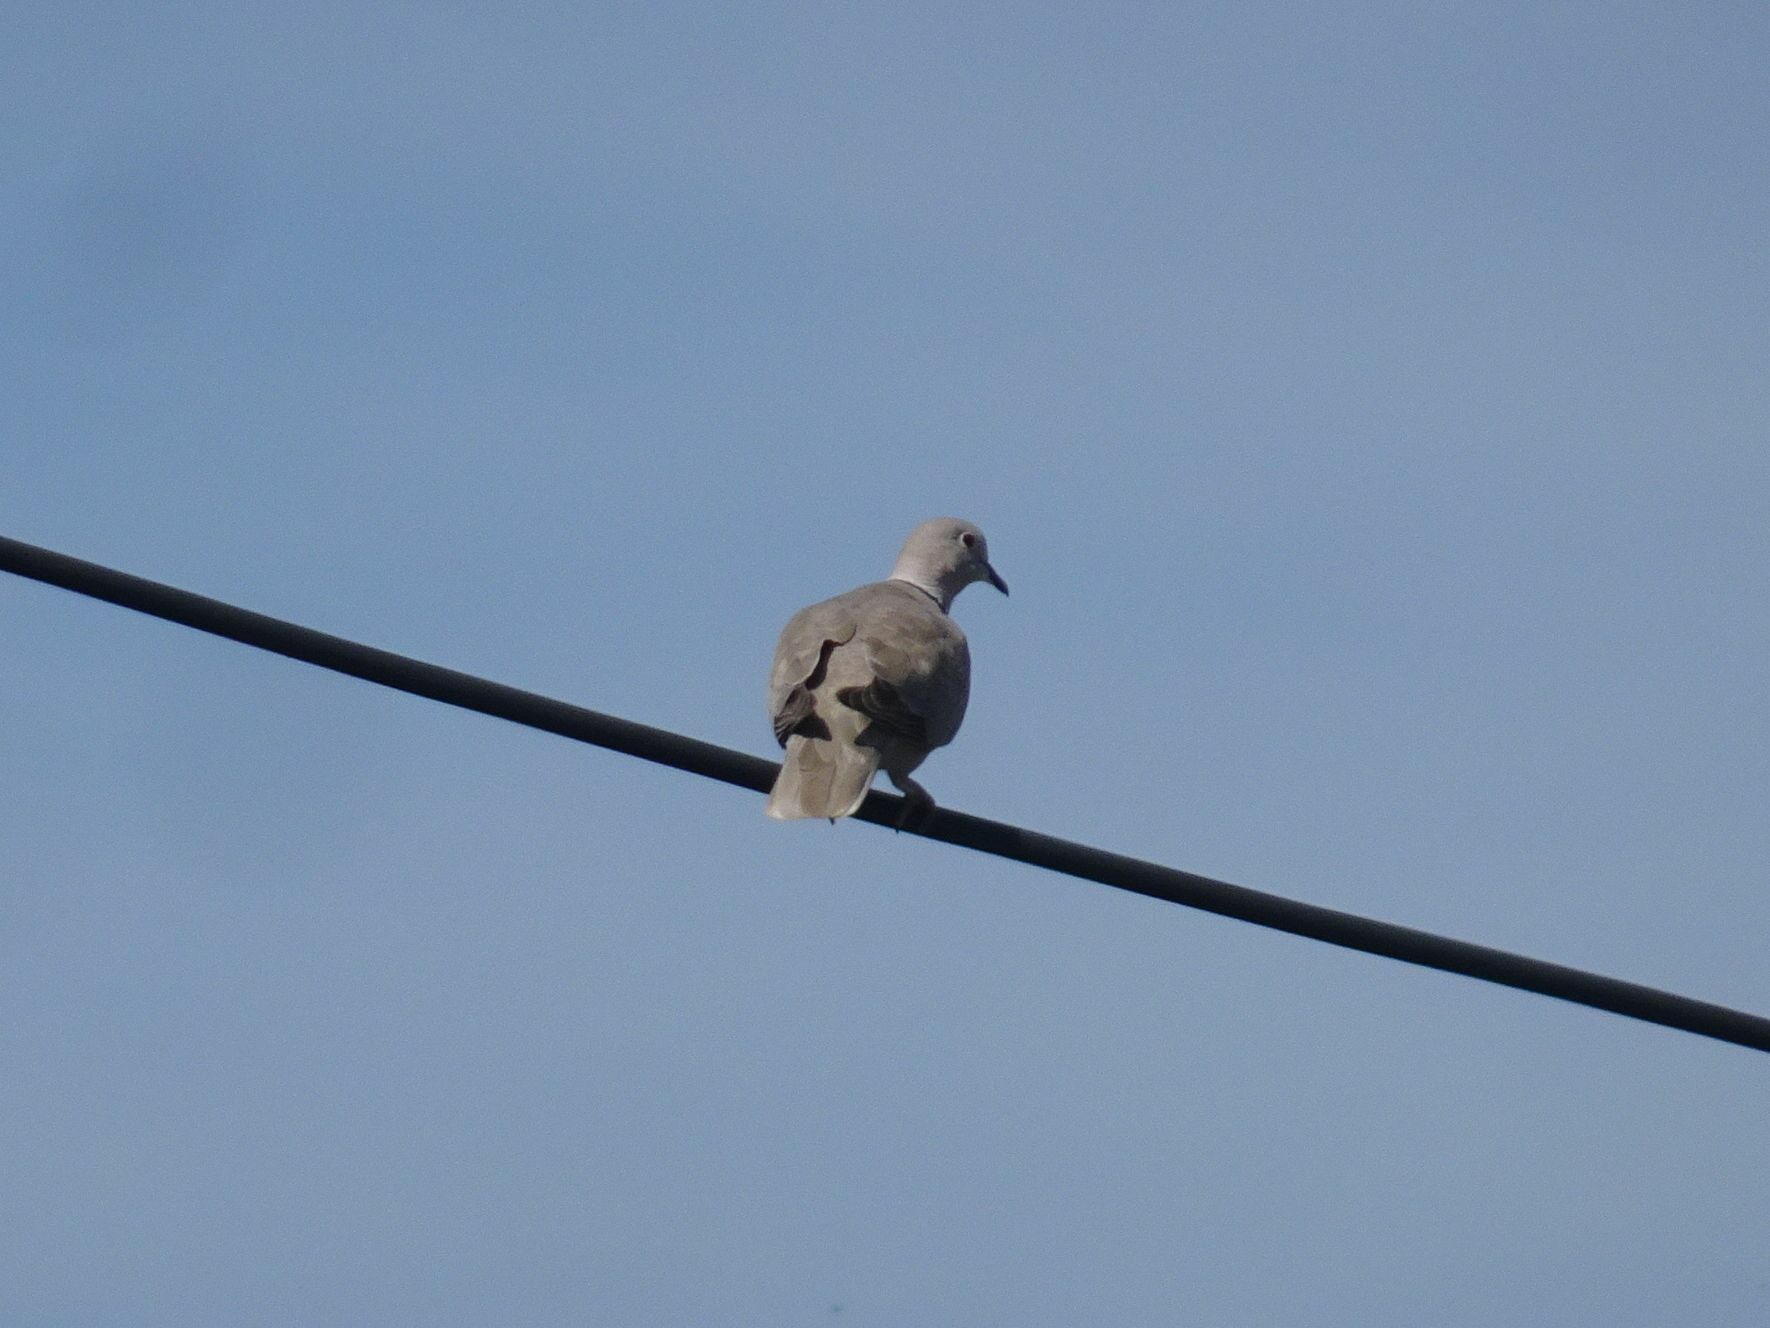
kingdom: Animalia
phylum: Chordata
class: Aves
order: Columbiformes
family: Columbidae
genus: Streptopelia
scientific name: Streptopelia decaocto
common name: Eurasian collared dove
